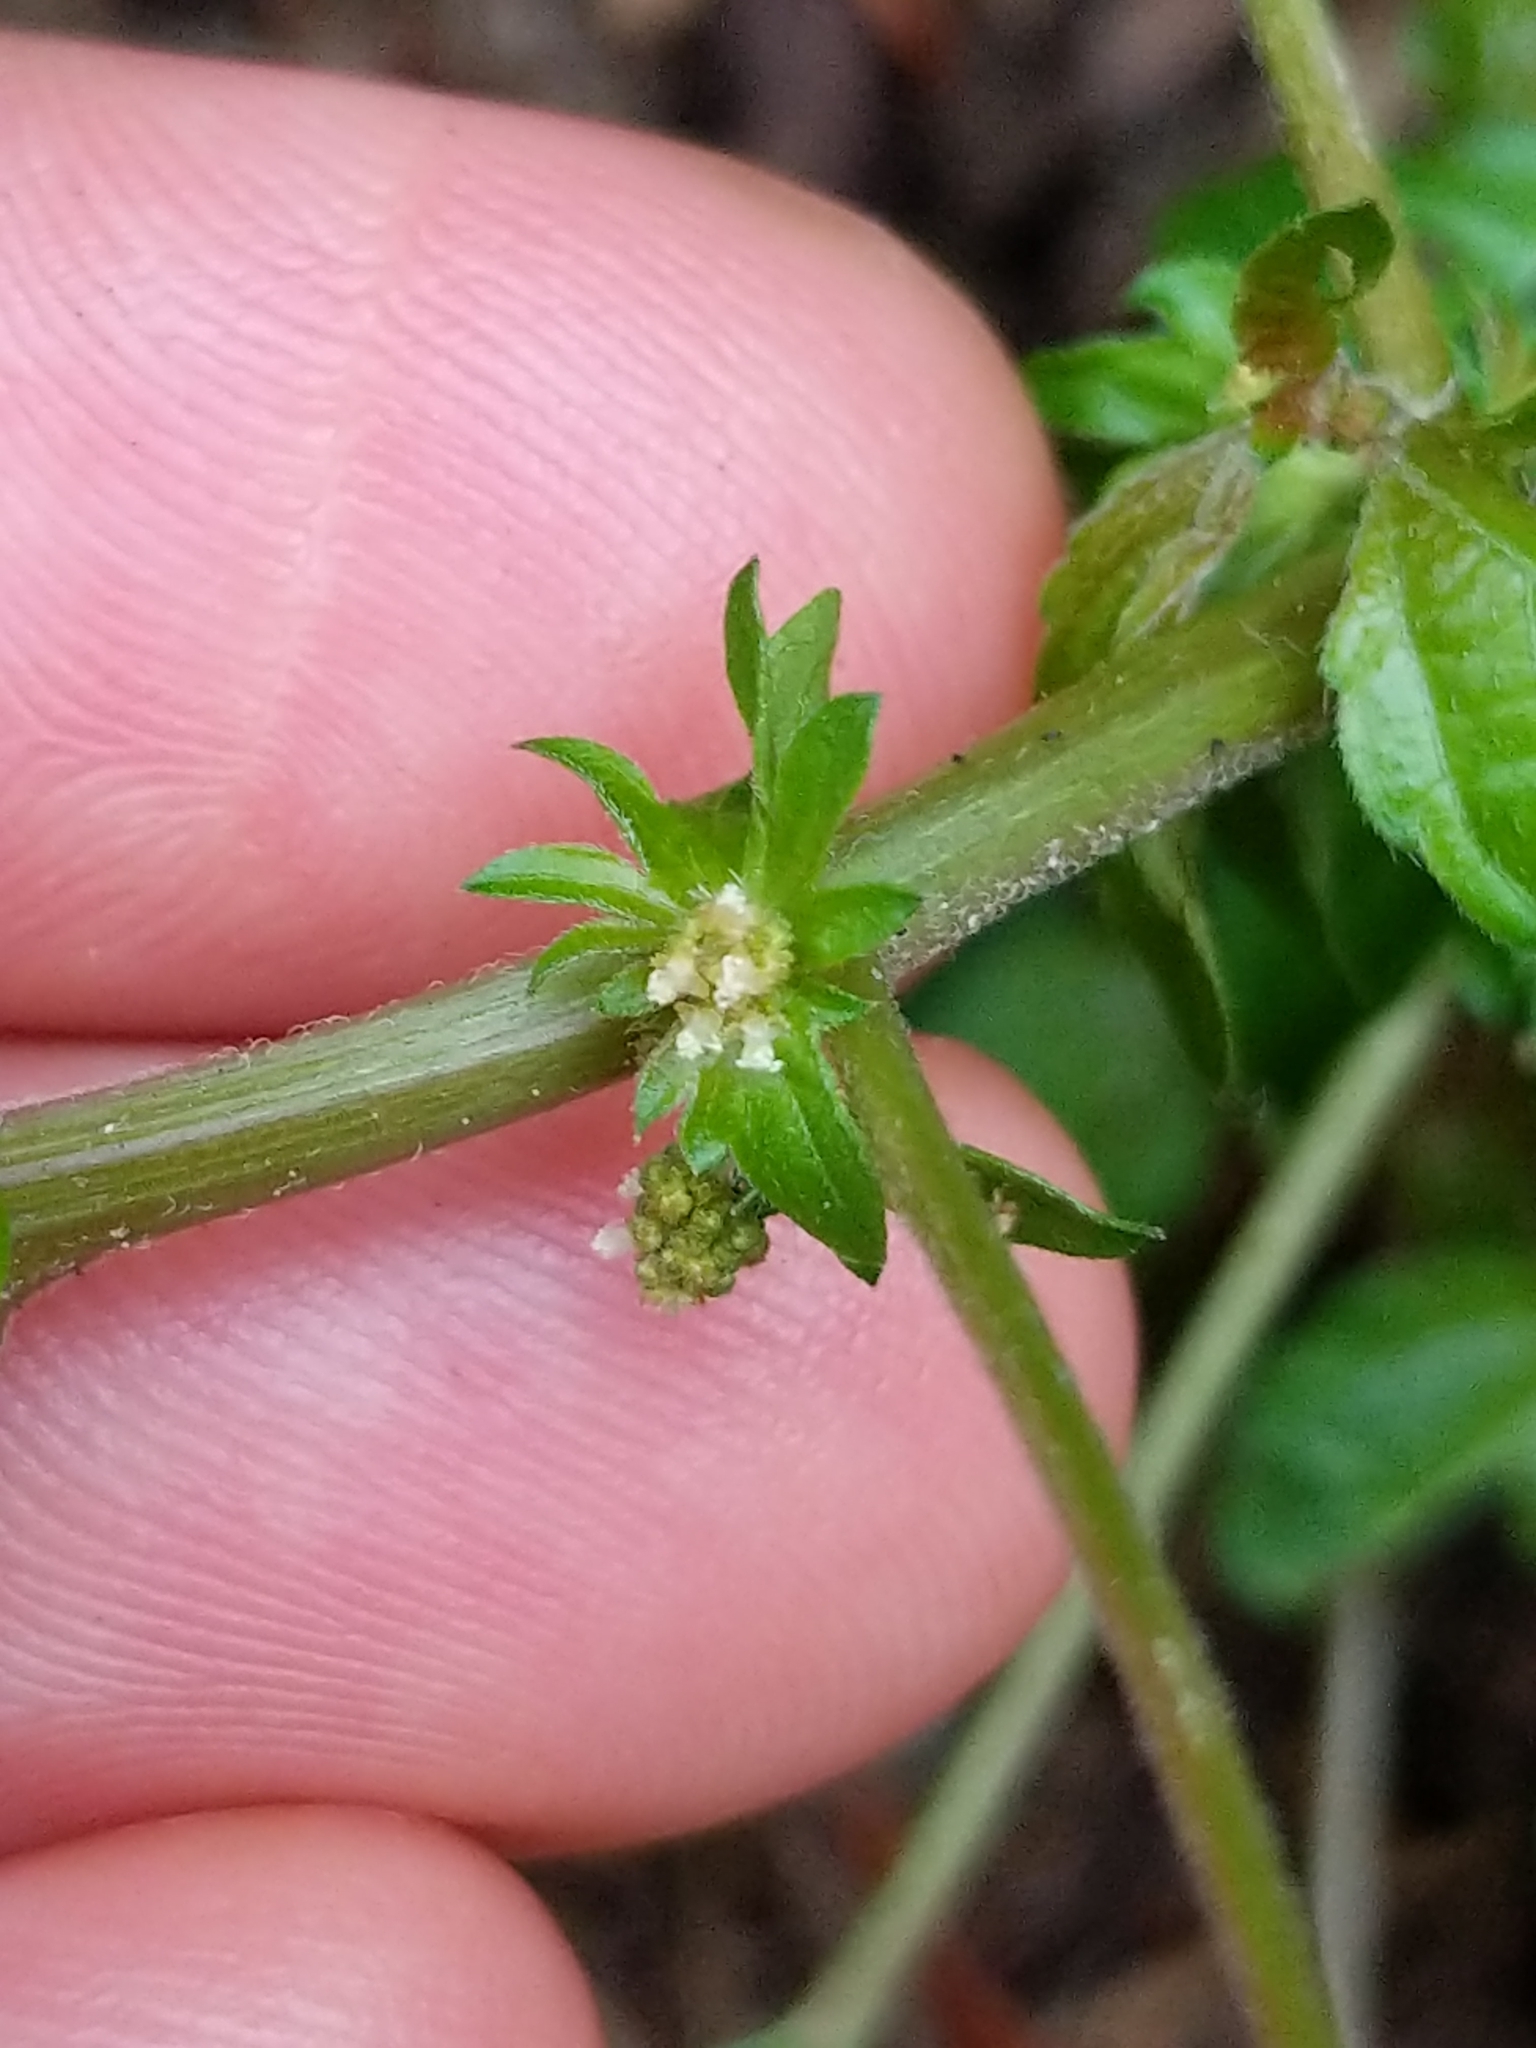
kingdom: Plantae
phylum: Tracheophyta
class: Magnoliopsida
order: Malpighiales
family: Euphorbiaceae
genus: Acalypha
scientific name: Acalypha rhomboidea
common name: Rhombic copperleaf
